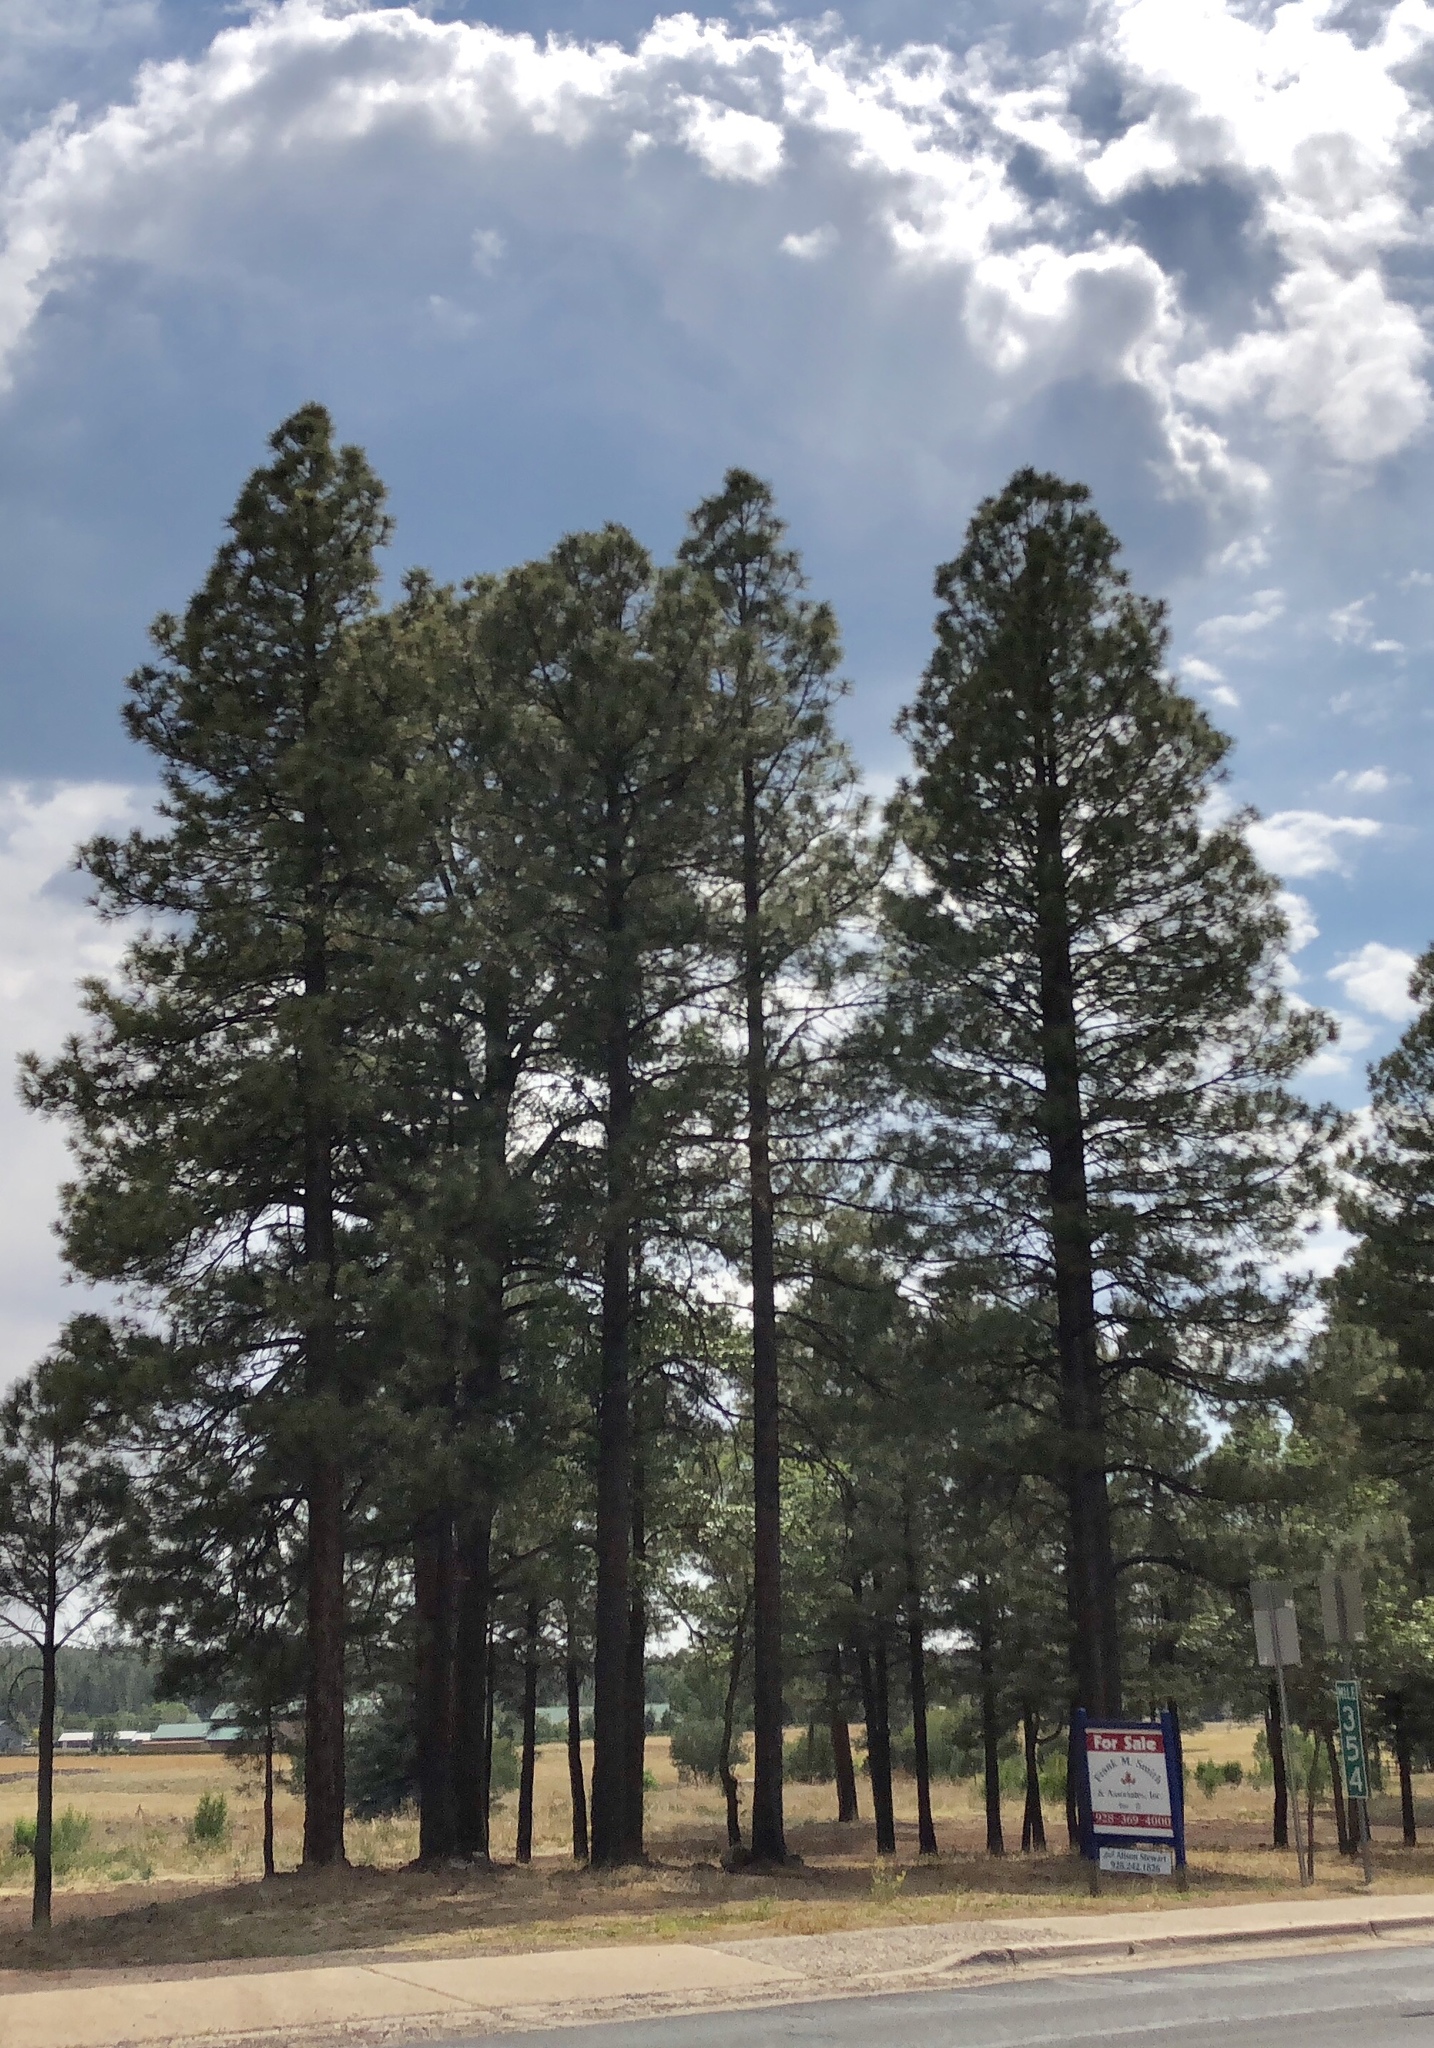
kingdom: Plantae
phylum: Tracheophyta
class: Pinopsida
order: Pinales
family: Pinaceae
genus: Pinus
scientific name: Pinus ponderosa
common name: Western yellow-pine
